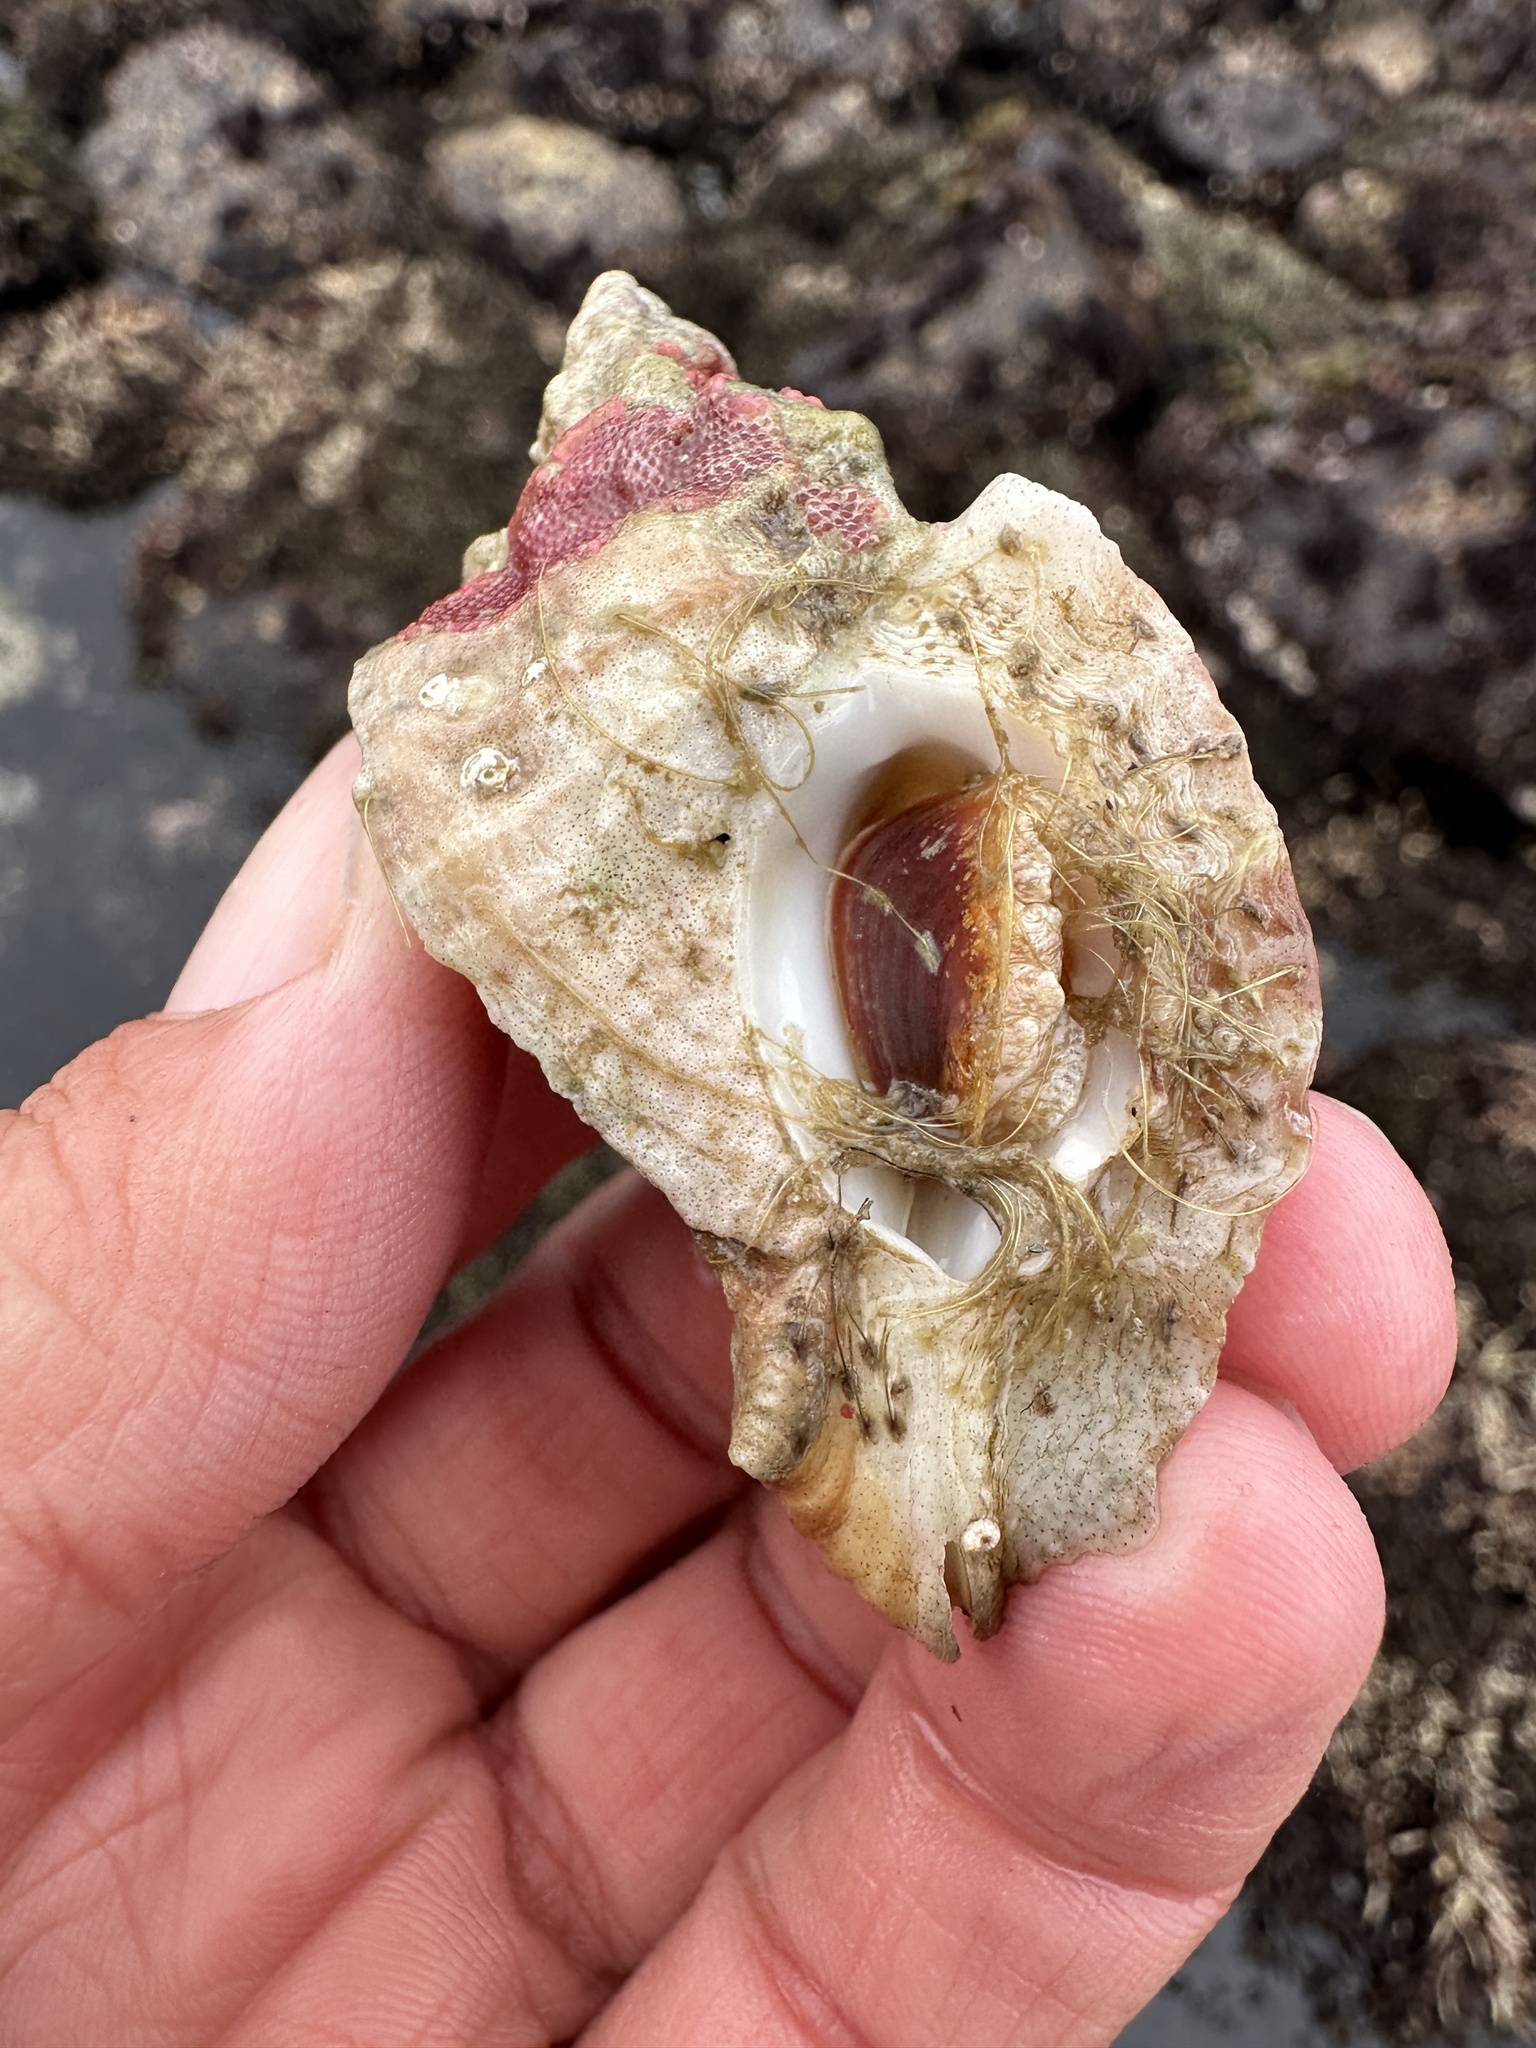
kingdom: Animalia
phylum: Mollusca
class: Gastropoda
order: Neogastropoda
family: Muricidae
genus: Ceratostoma
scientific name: Ceratostoma foliatum
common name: Foliate thorn purpura
